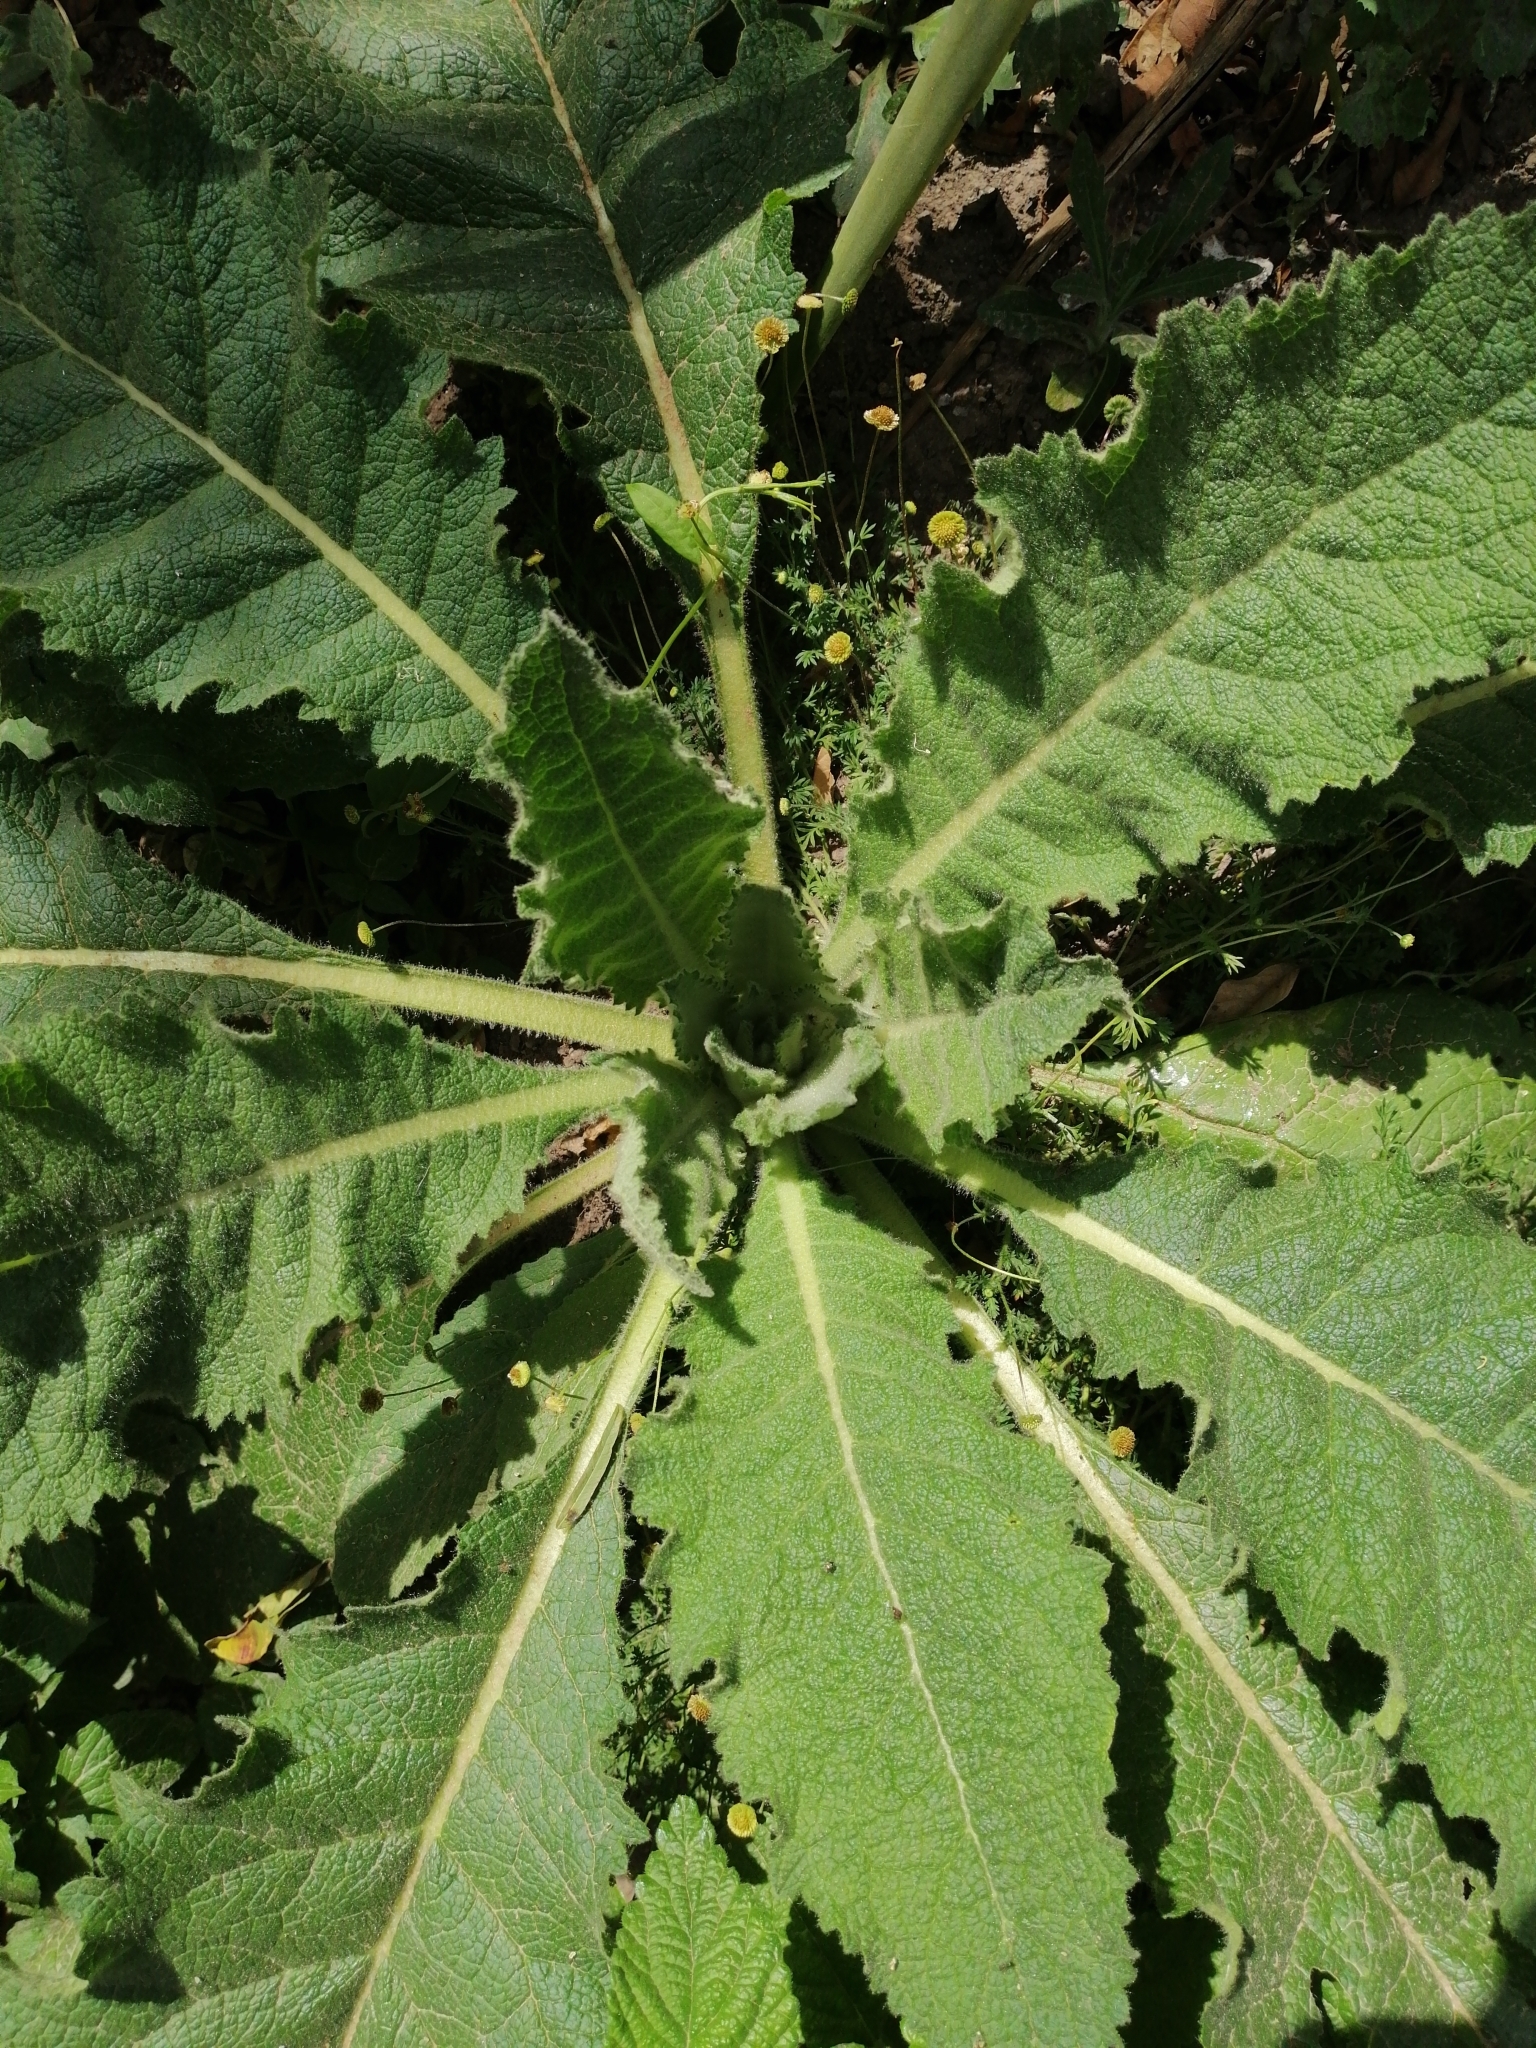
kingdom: Plantae
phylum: Tracheophyta
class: Magnoliopsida
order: Lamiales
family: Scrophulariaceae
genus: Verbascum
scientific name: Verbascum phlomoides
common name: Orange mullein
